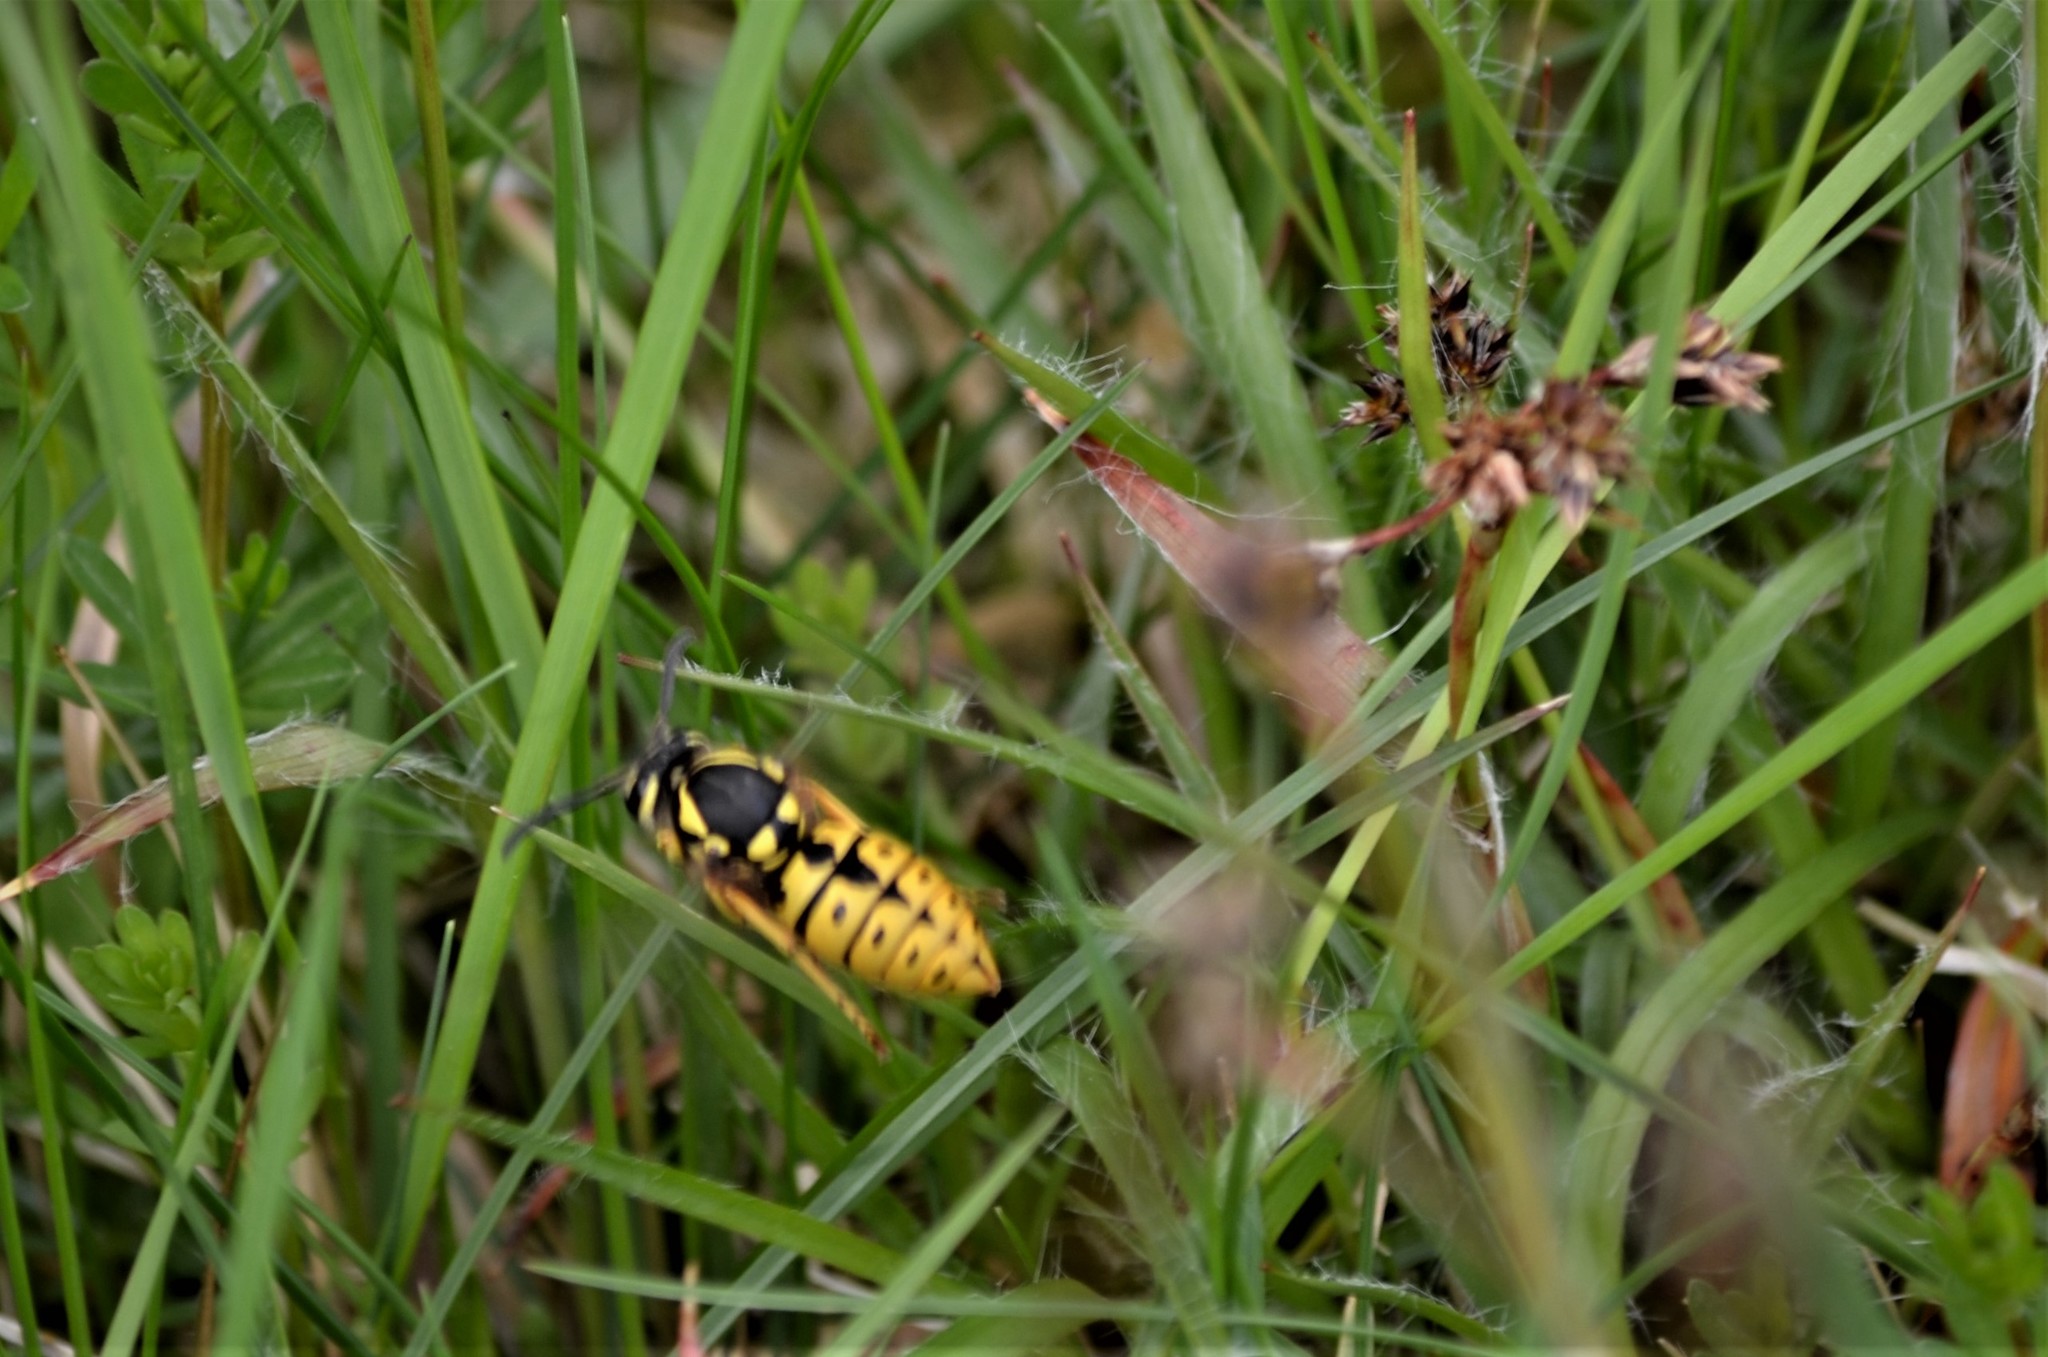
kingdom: Animalia
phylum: Arthropoda
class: Insecta
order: Hymenoptera
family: Vespidae
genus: Vespula
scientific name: Vespula germanica
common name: German wasp
